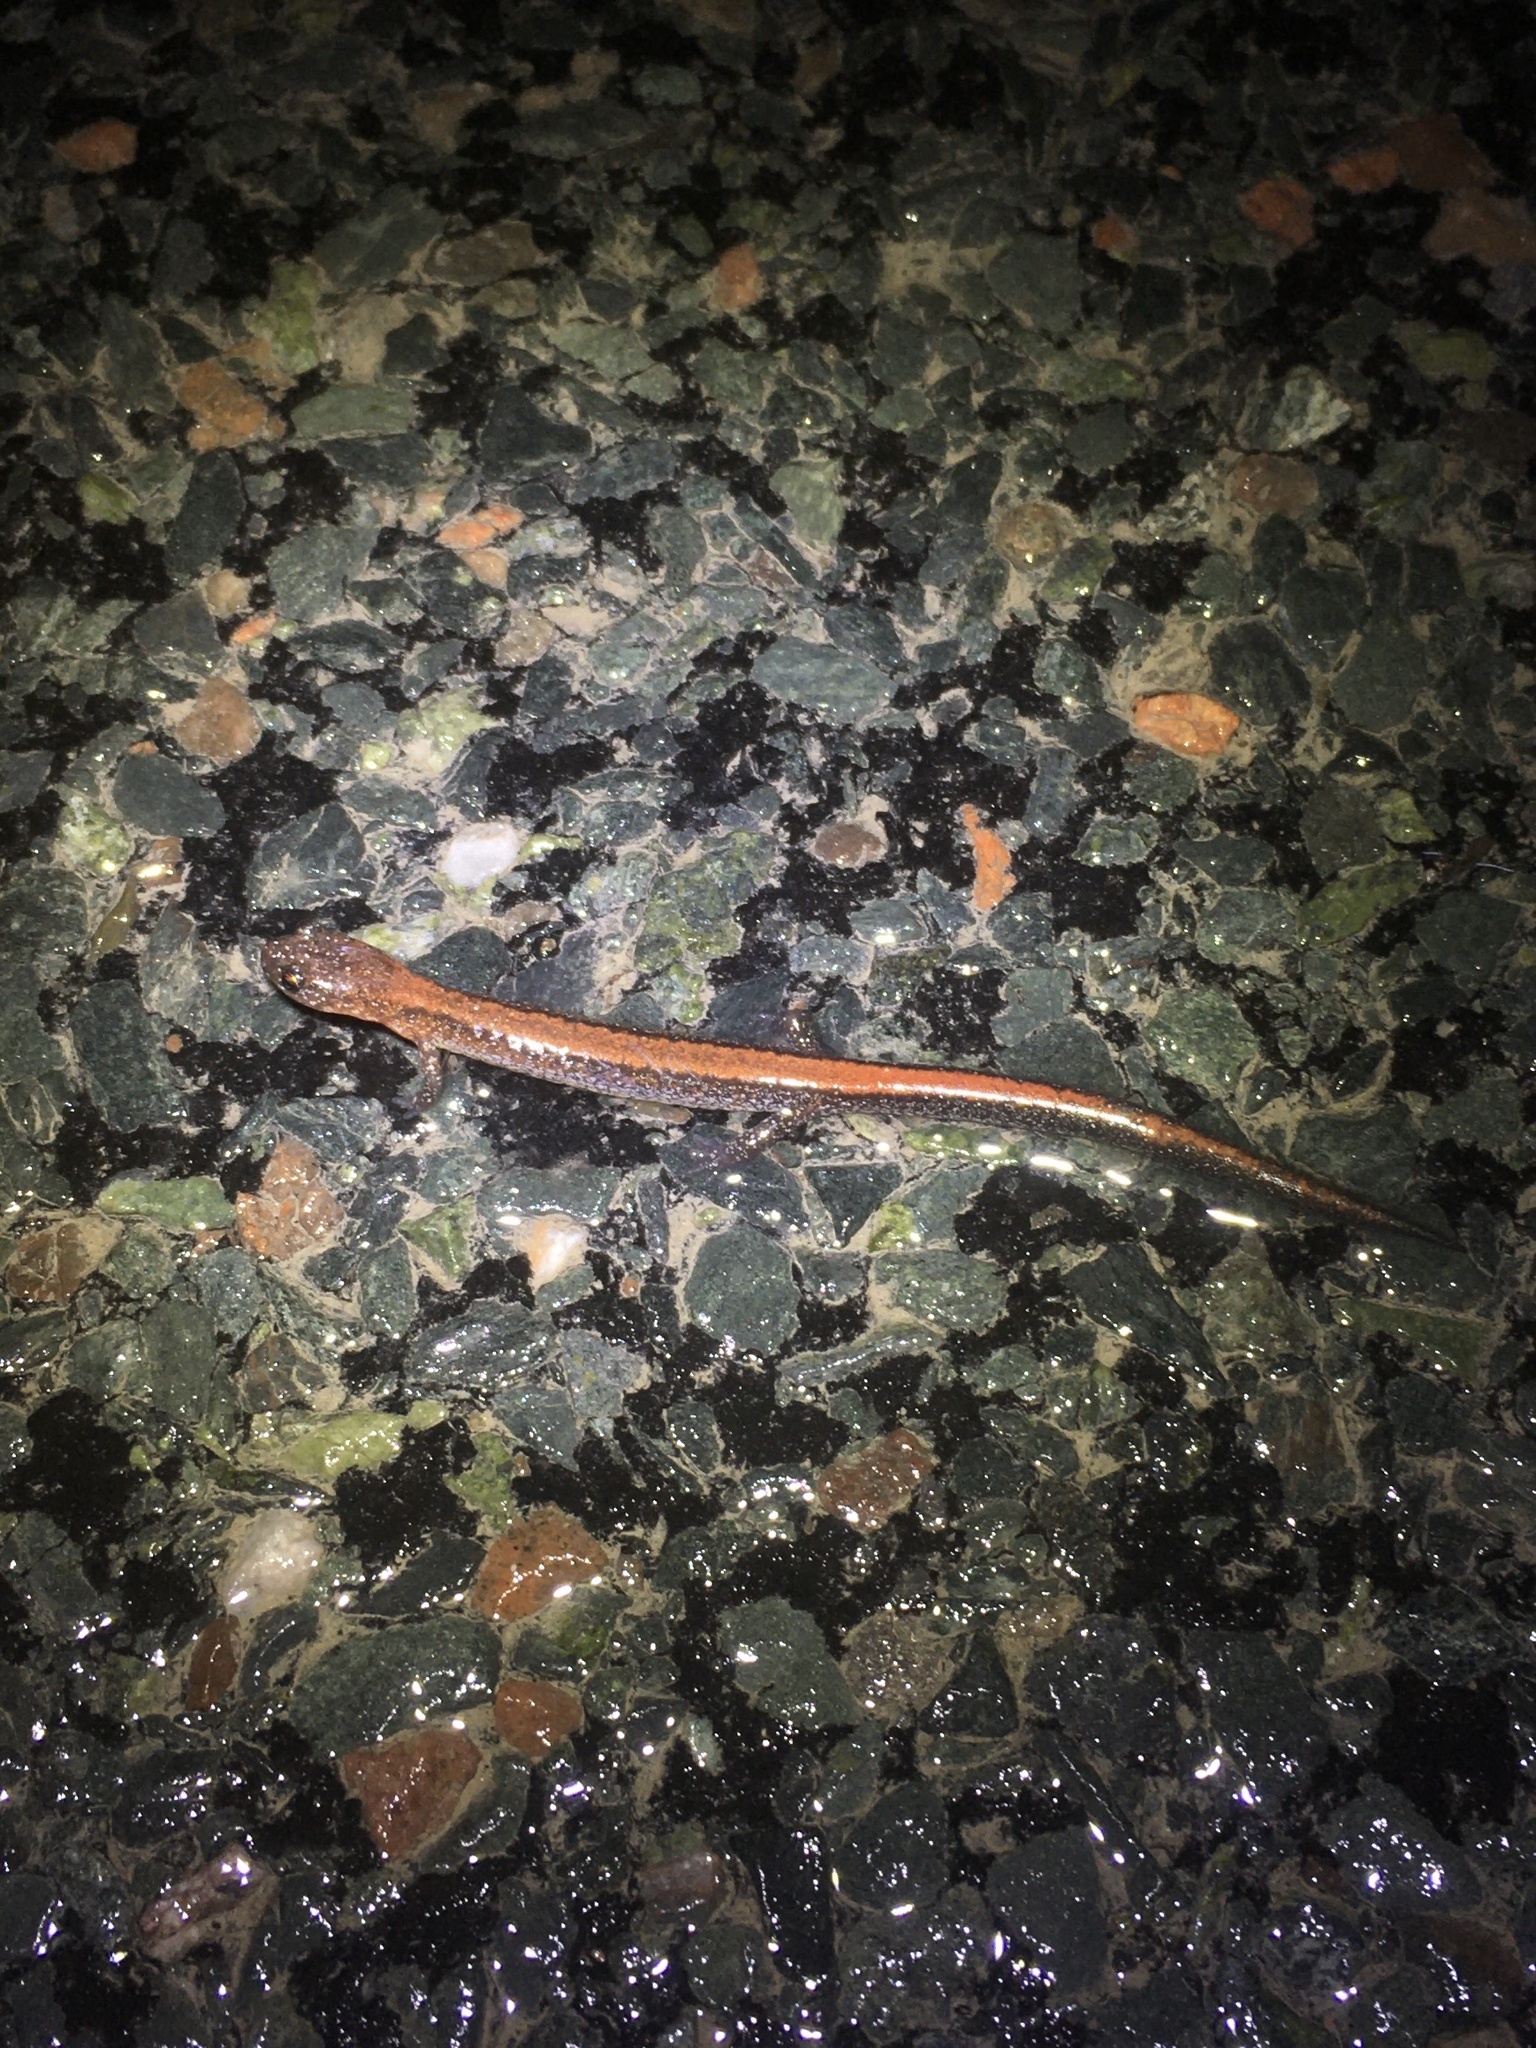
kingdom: Animalia
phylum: Chordata
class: Amphibia
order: Caudata
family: Plethodontidae
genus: Plethodon
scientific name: Plethodon cinereus
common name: Redback salamander
